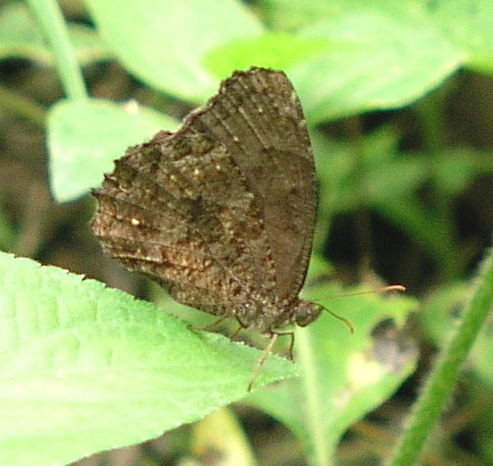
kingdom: Animalia
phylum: Arthropoda
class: Insecta
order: Lepidoptera
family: Nymphalidae
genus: Praepedaliodes
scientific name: Praepedaliodes phanias
